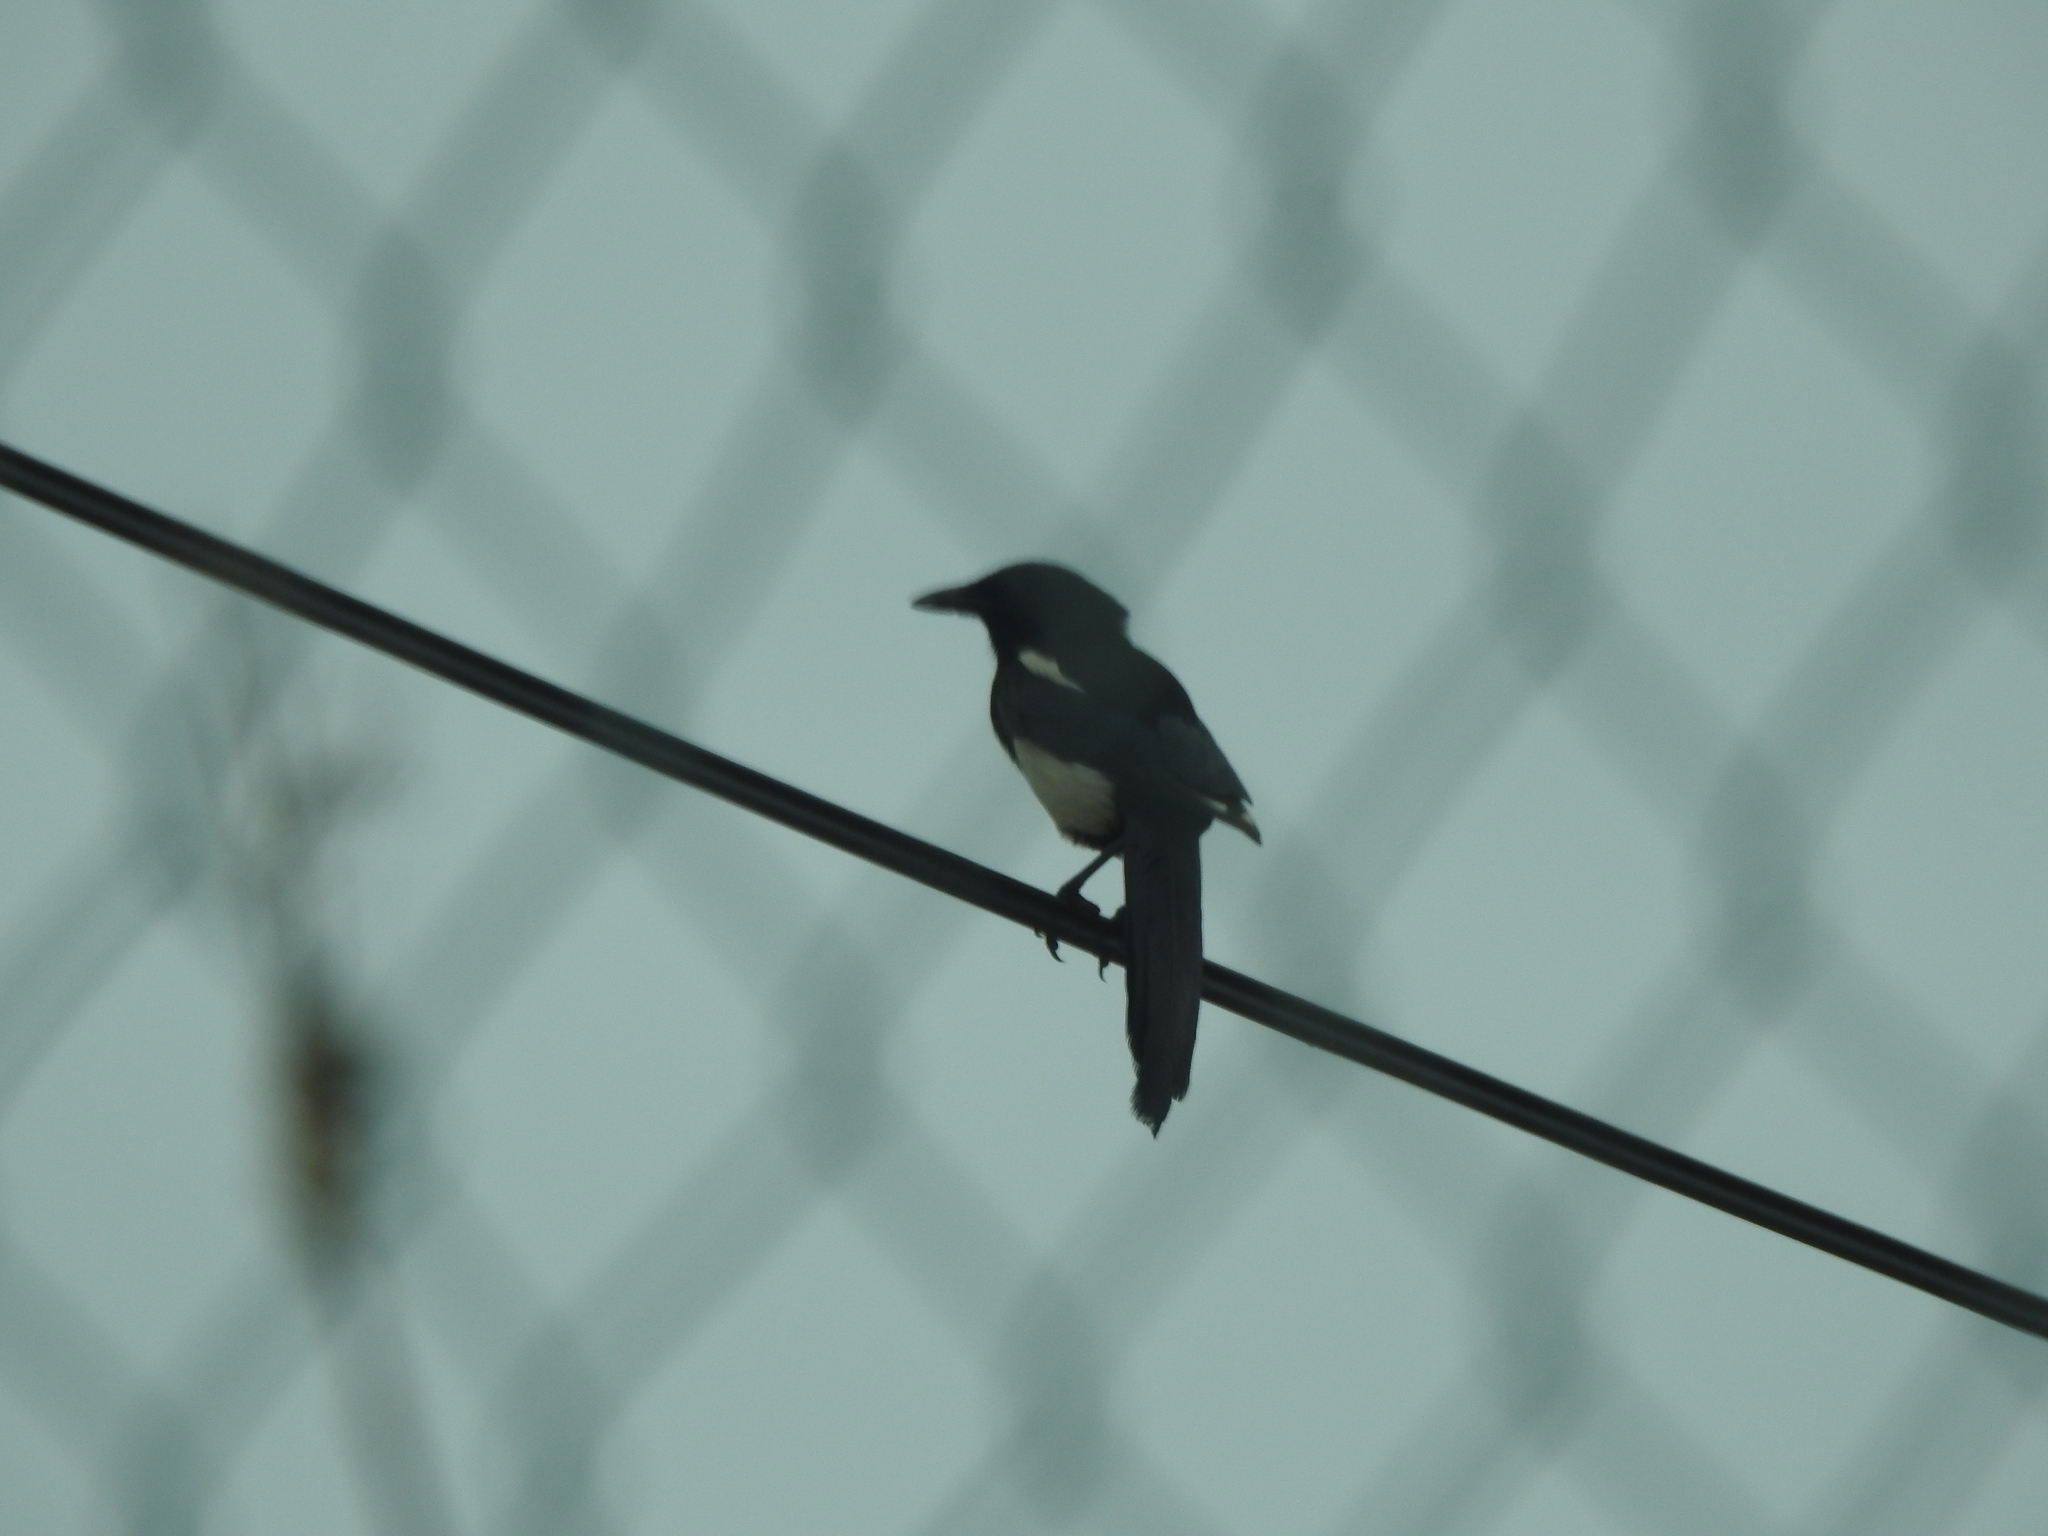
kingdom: Animalia
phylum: Chordata
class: Aves
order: Passeriformes
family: Corvidae
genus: Pica
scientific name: Pica pica
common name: Eurasian magpie
